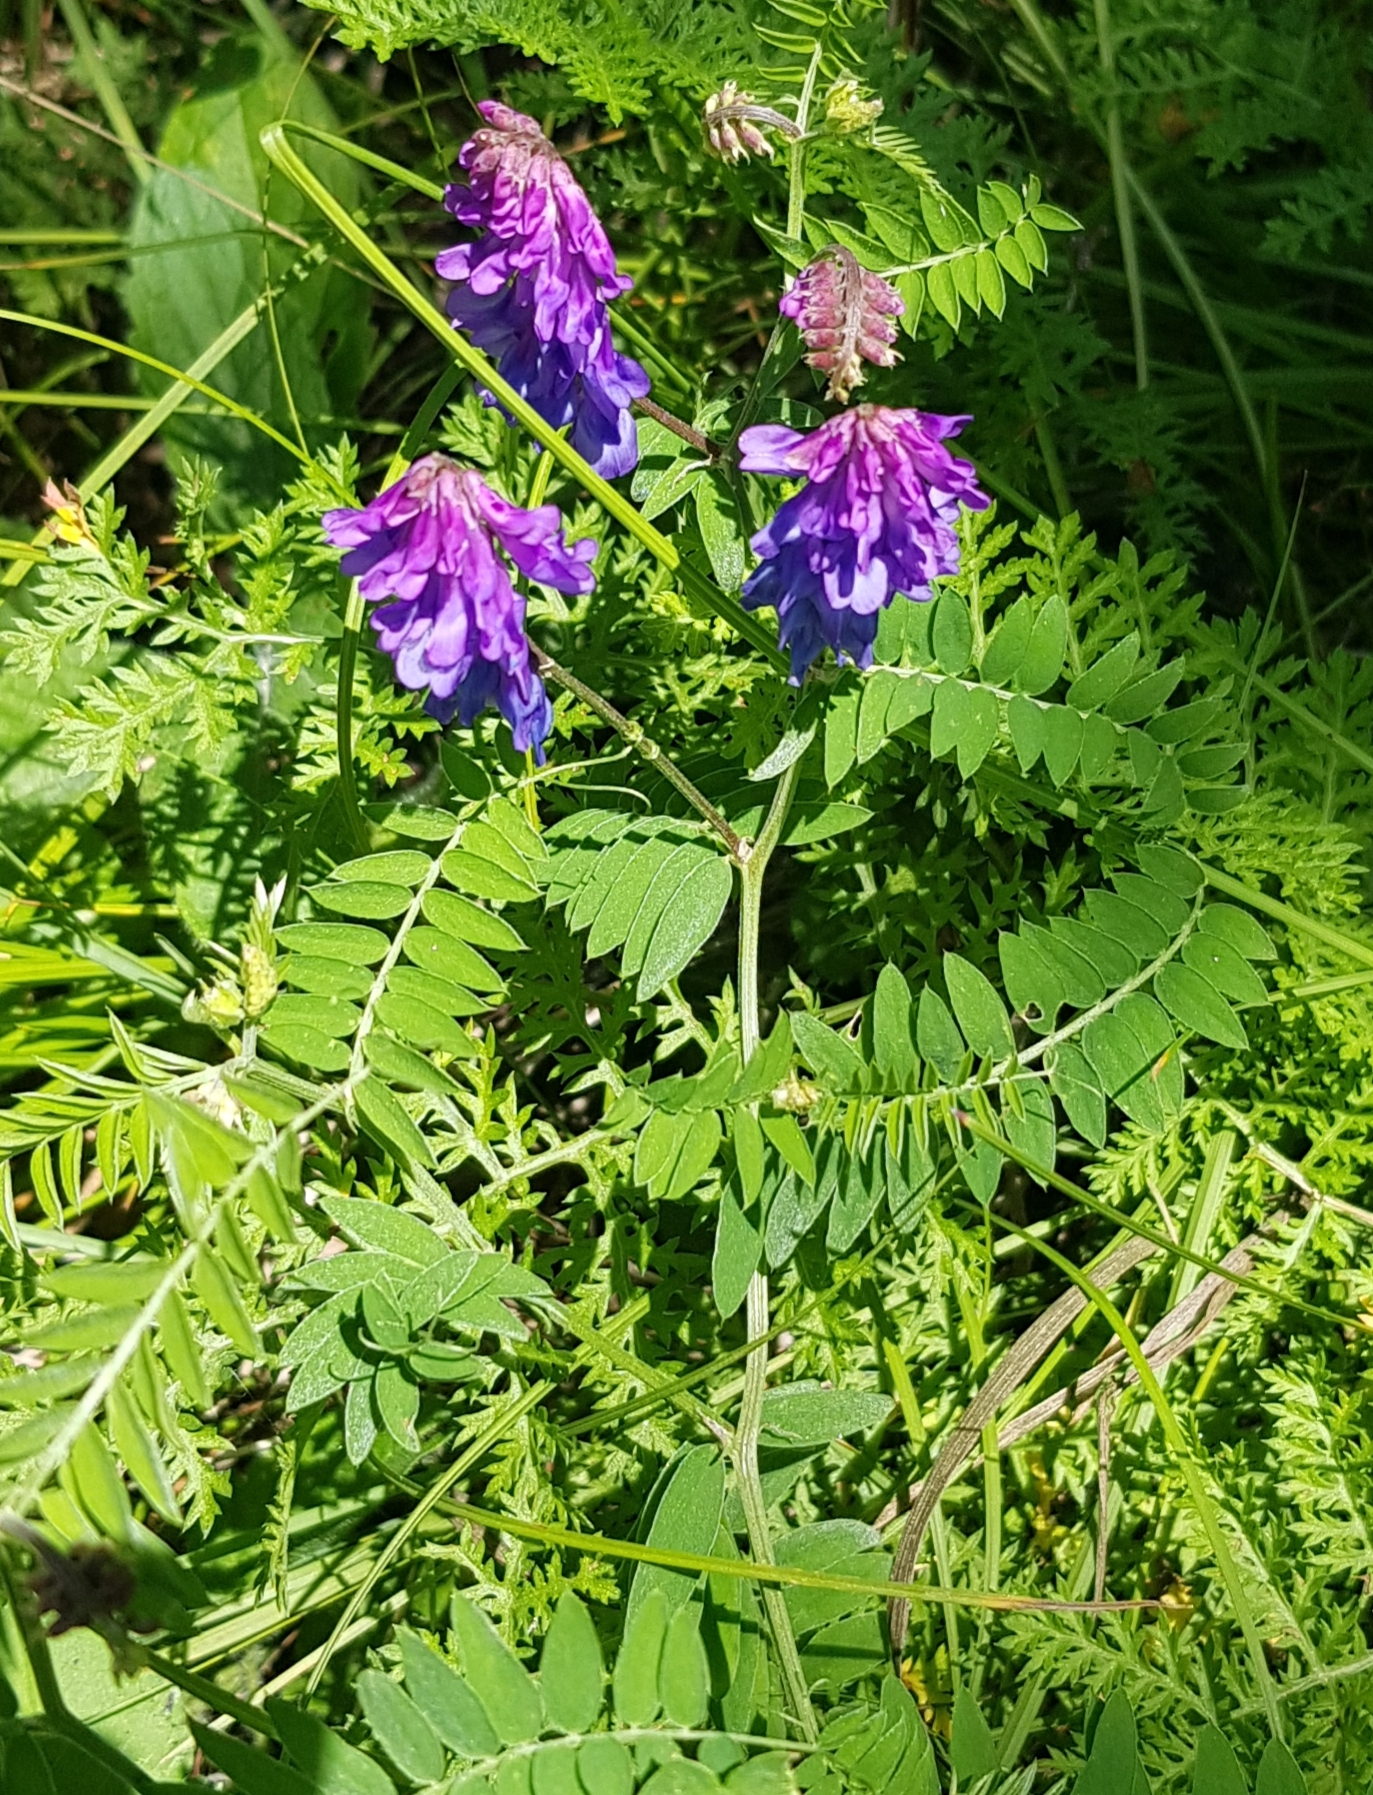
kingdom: Plantae
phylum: Tracheophyta
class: Magnoliopsida
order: Fabales
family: Fabaceae
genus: Vicia
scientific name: Vicia amoena
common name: Cheder ebs
